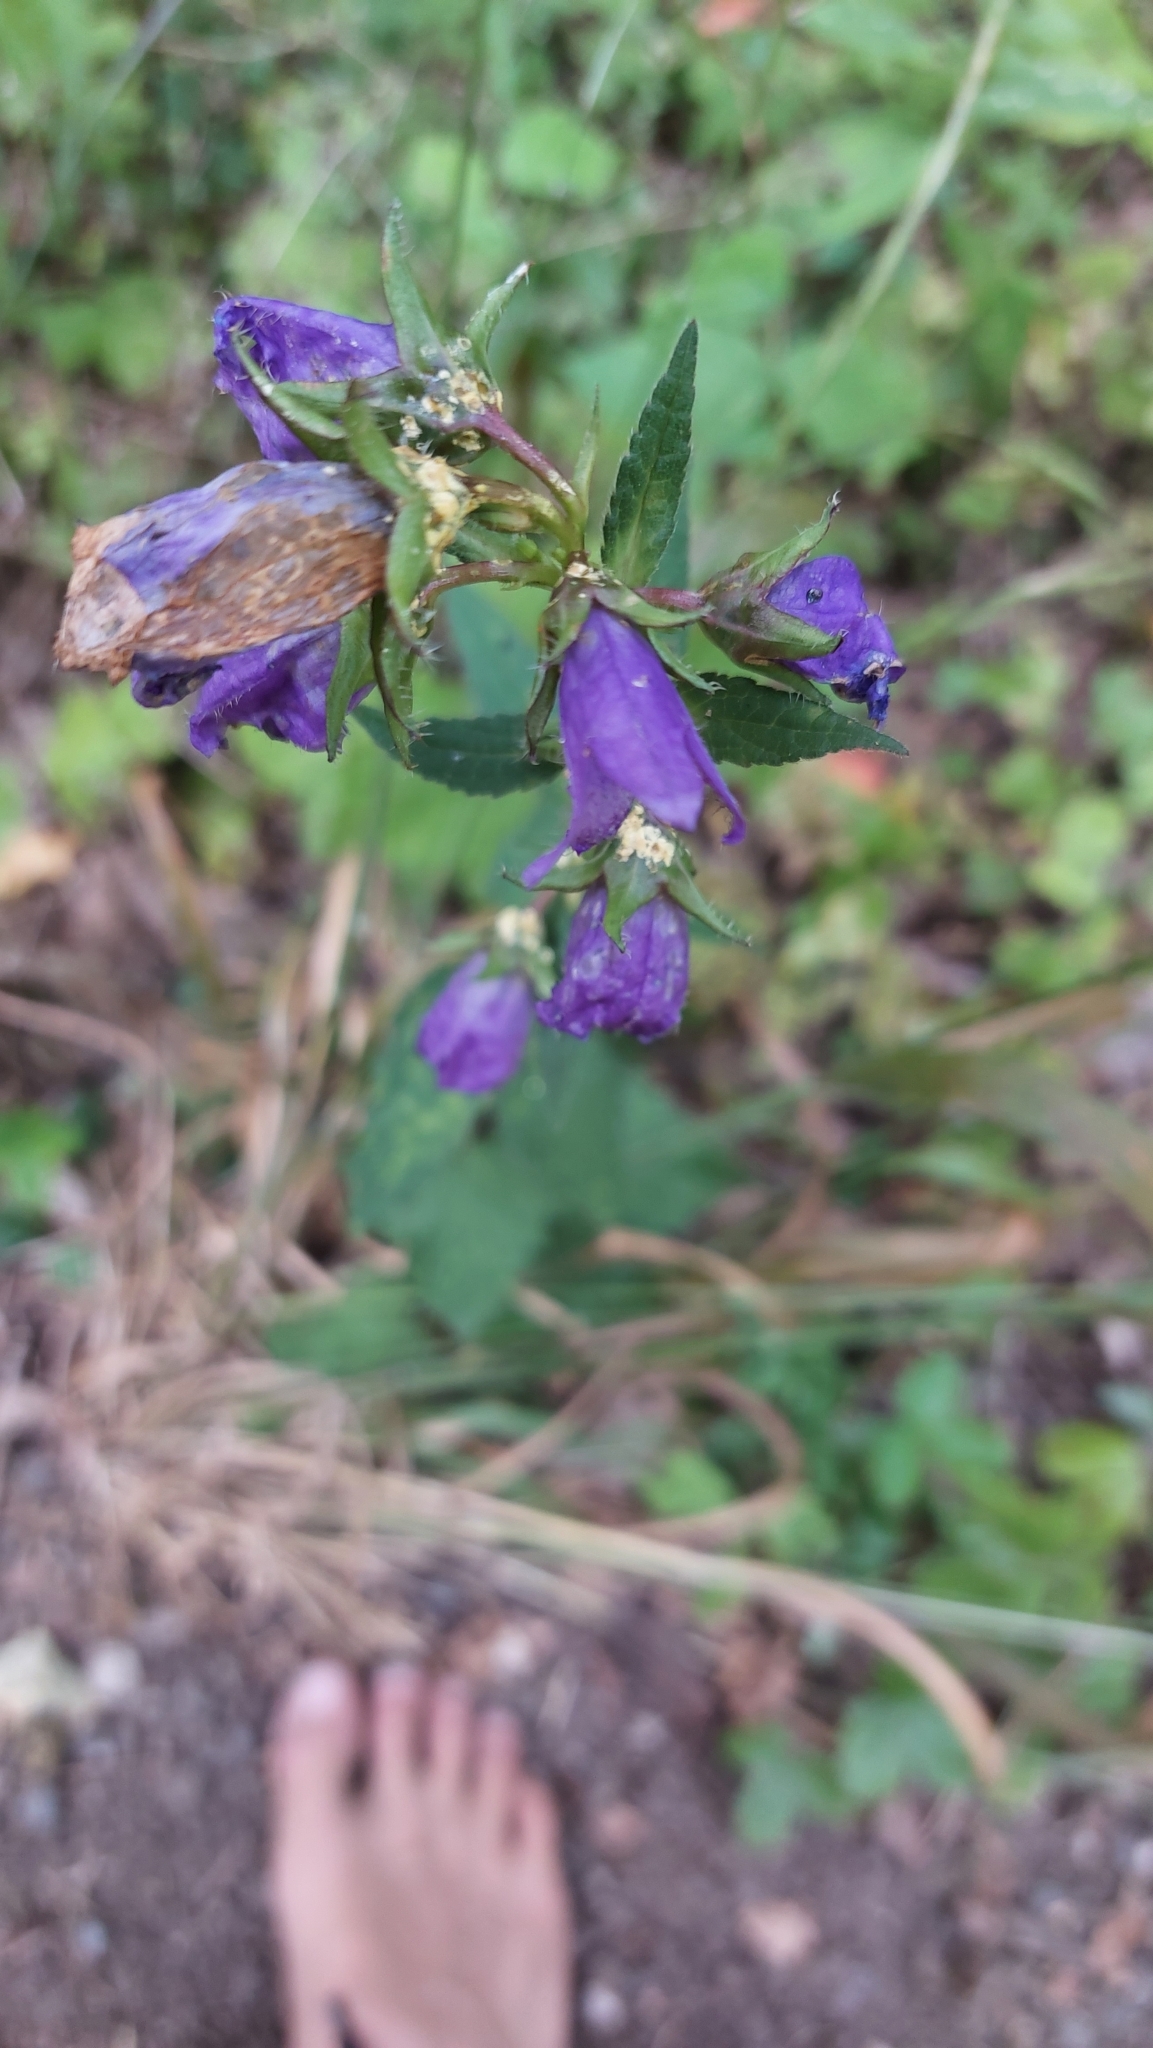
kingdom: Plantae
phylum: Tracheophyta
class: Magnoliopsida
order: Asterales
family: Campanulaceae
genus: Campanula
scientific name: Campanula trachelium
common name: Nettle-leaved bellflower
